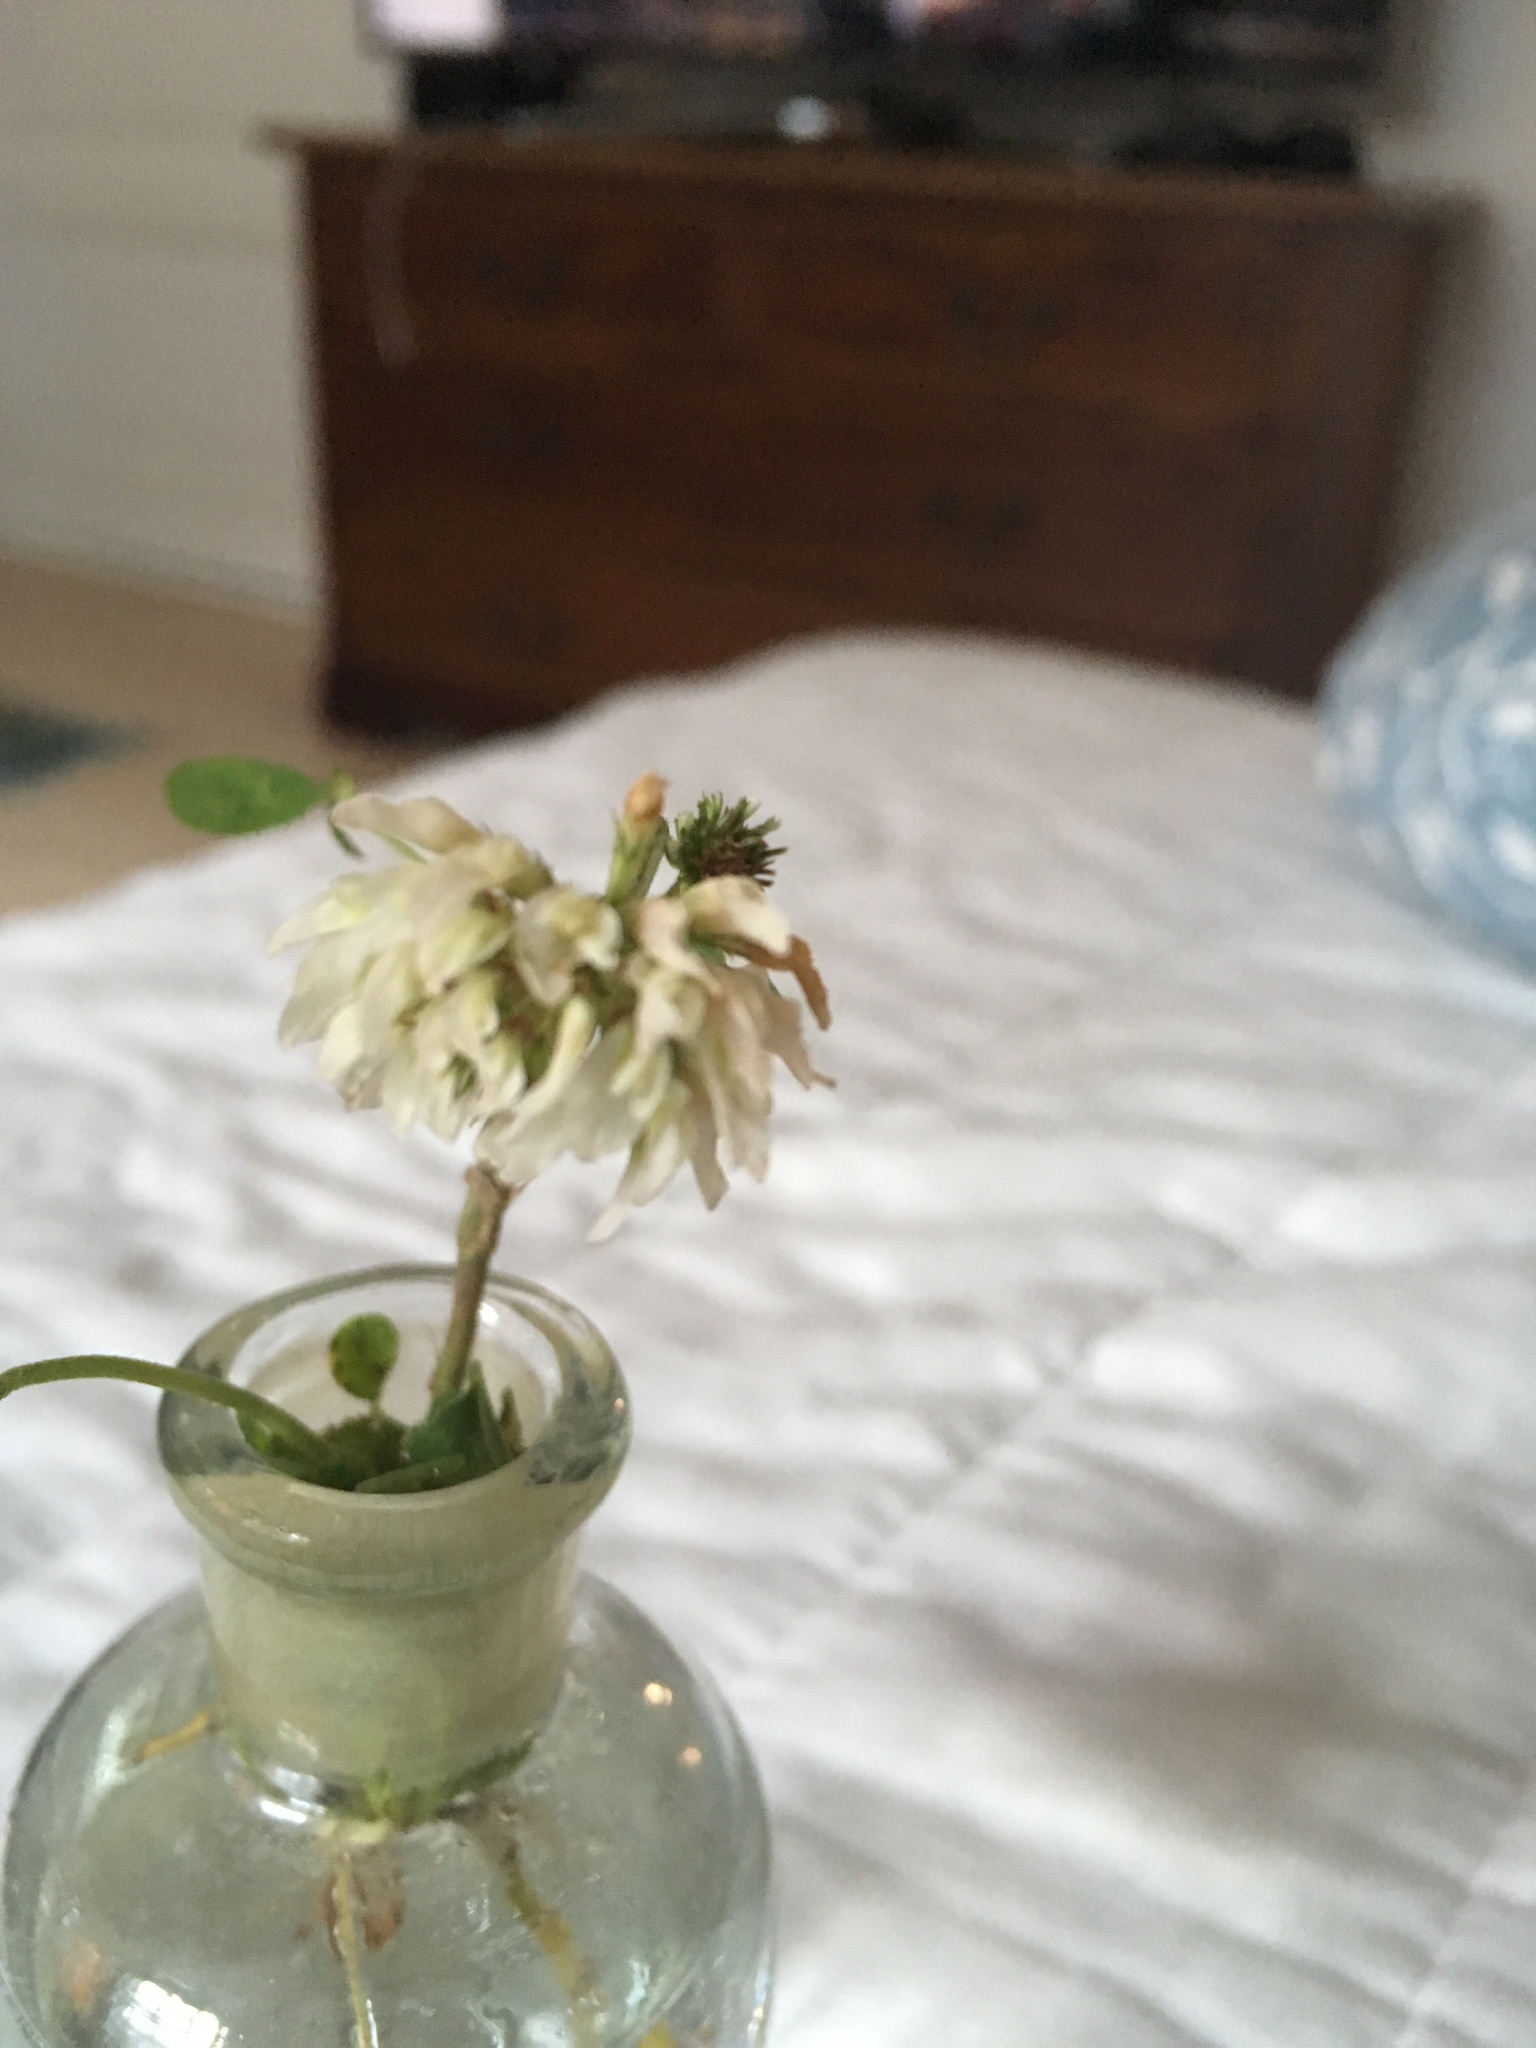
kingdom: Plantae
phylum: Tracheophyta
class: Magnoliopsida
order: Fabales
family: Fabaceae
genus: Trifolium
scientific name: Trifolium repens
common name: White clover
